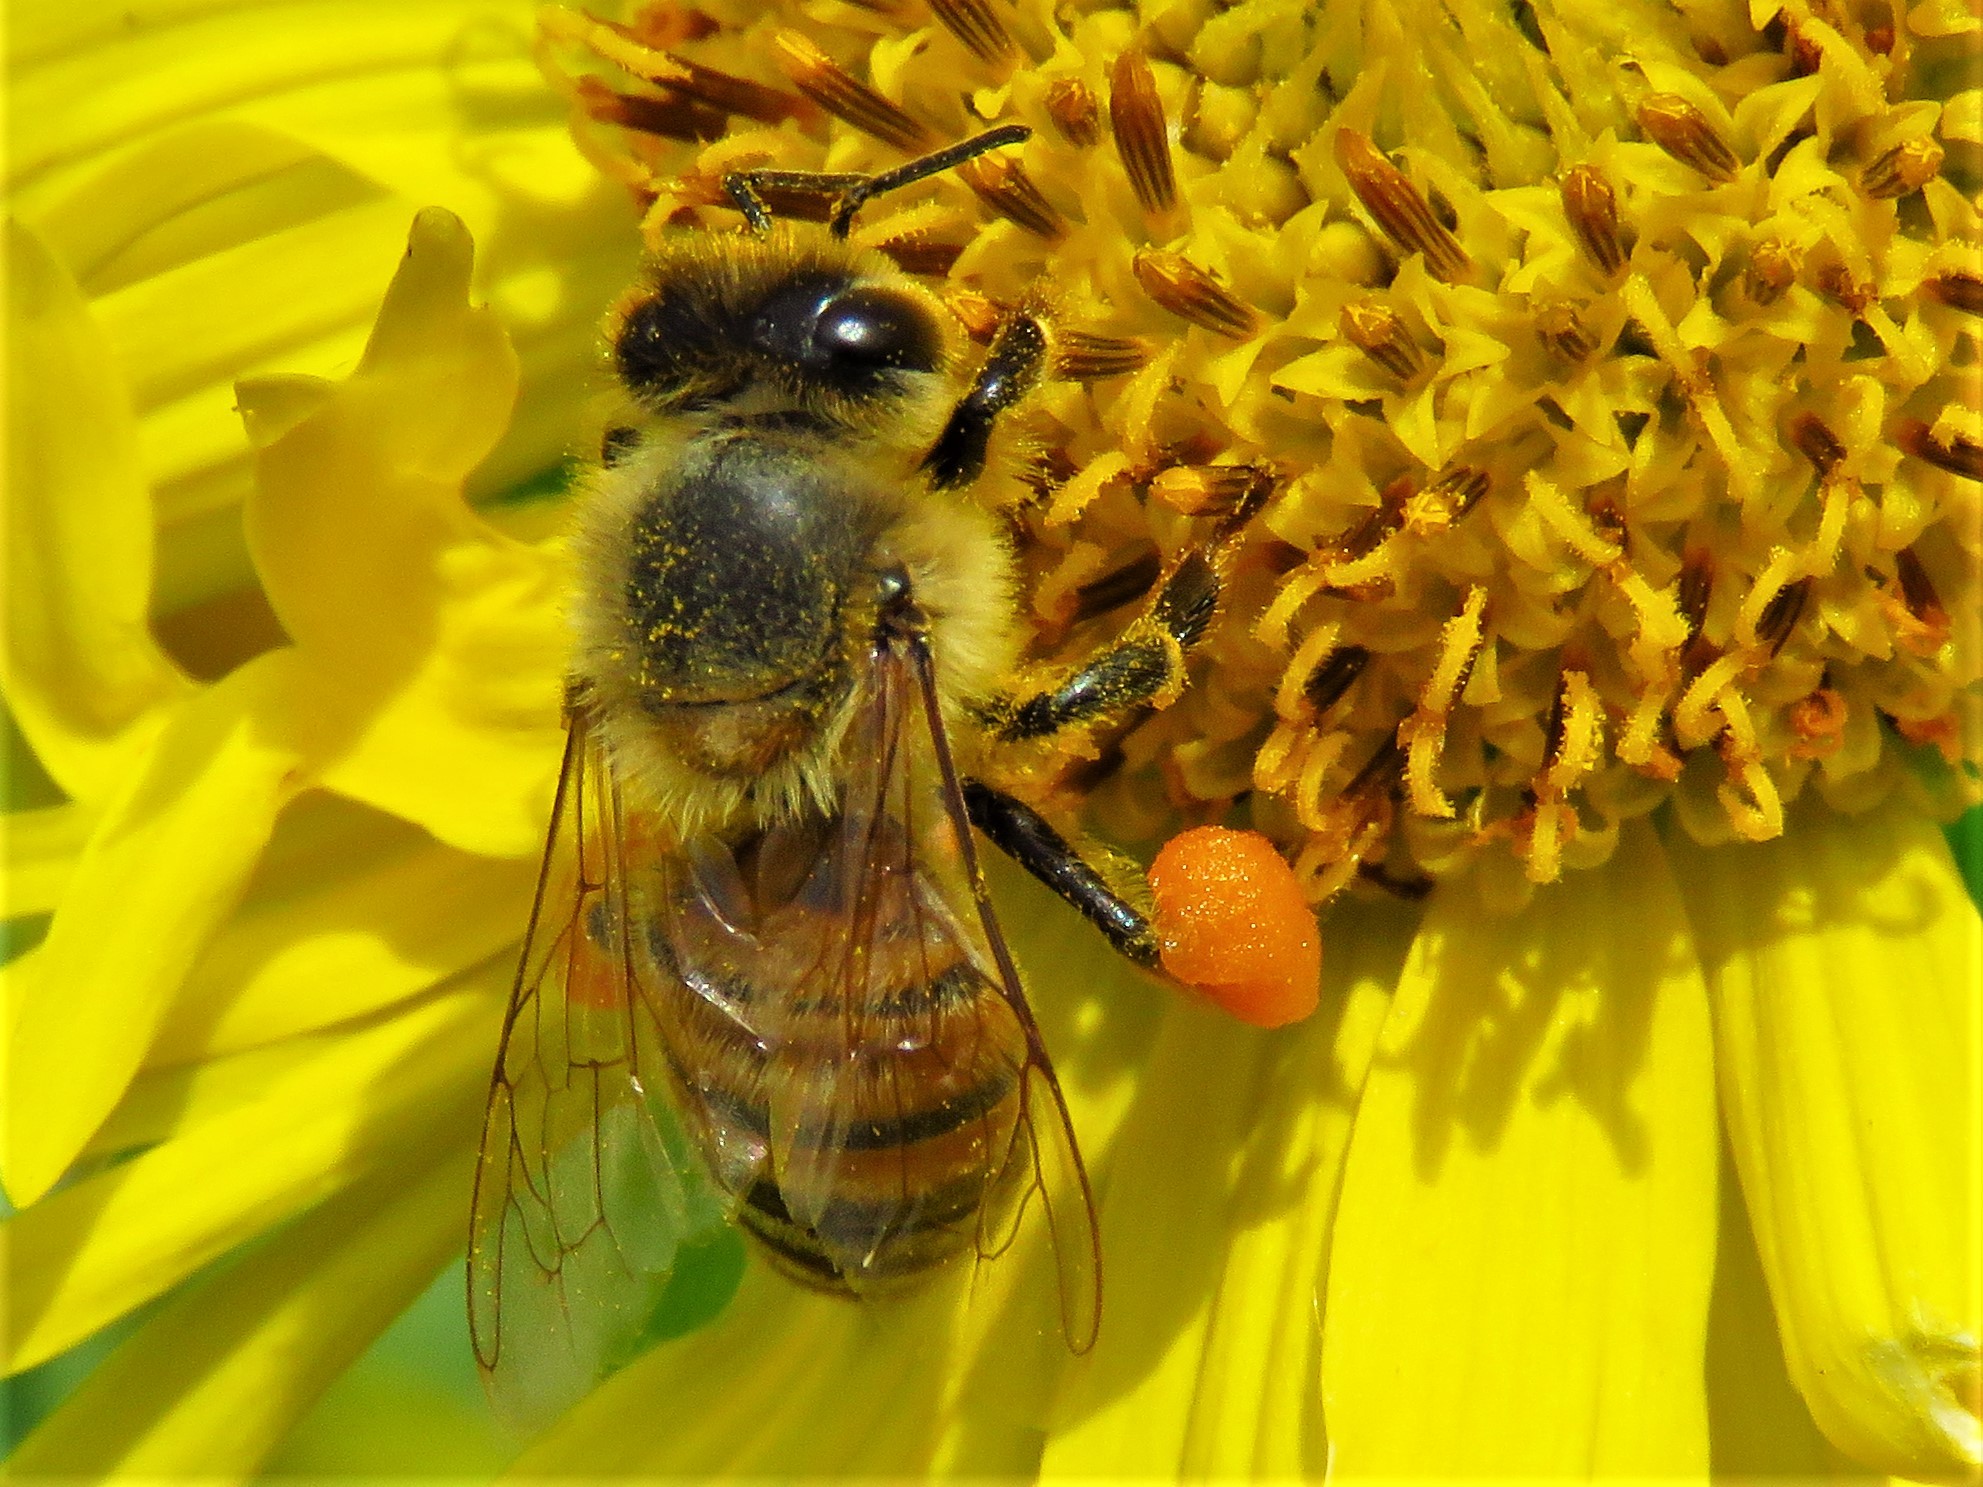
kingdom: Animalia
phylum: Arthropoda
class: Insecta
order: Hymenoptera
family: Apidae
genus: Apis
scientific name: Apis mellifera
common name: Honey bee
